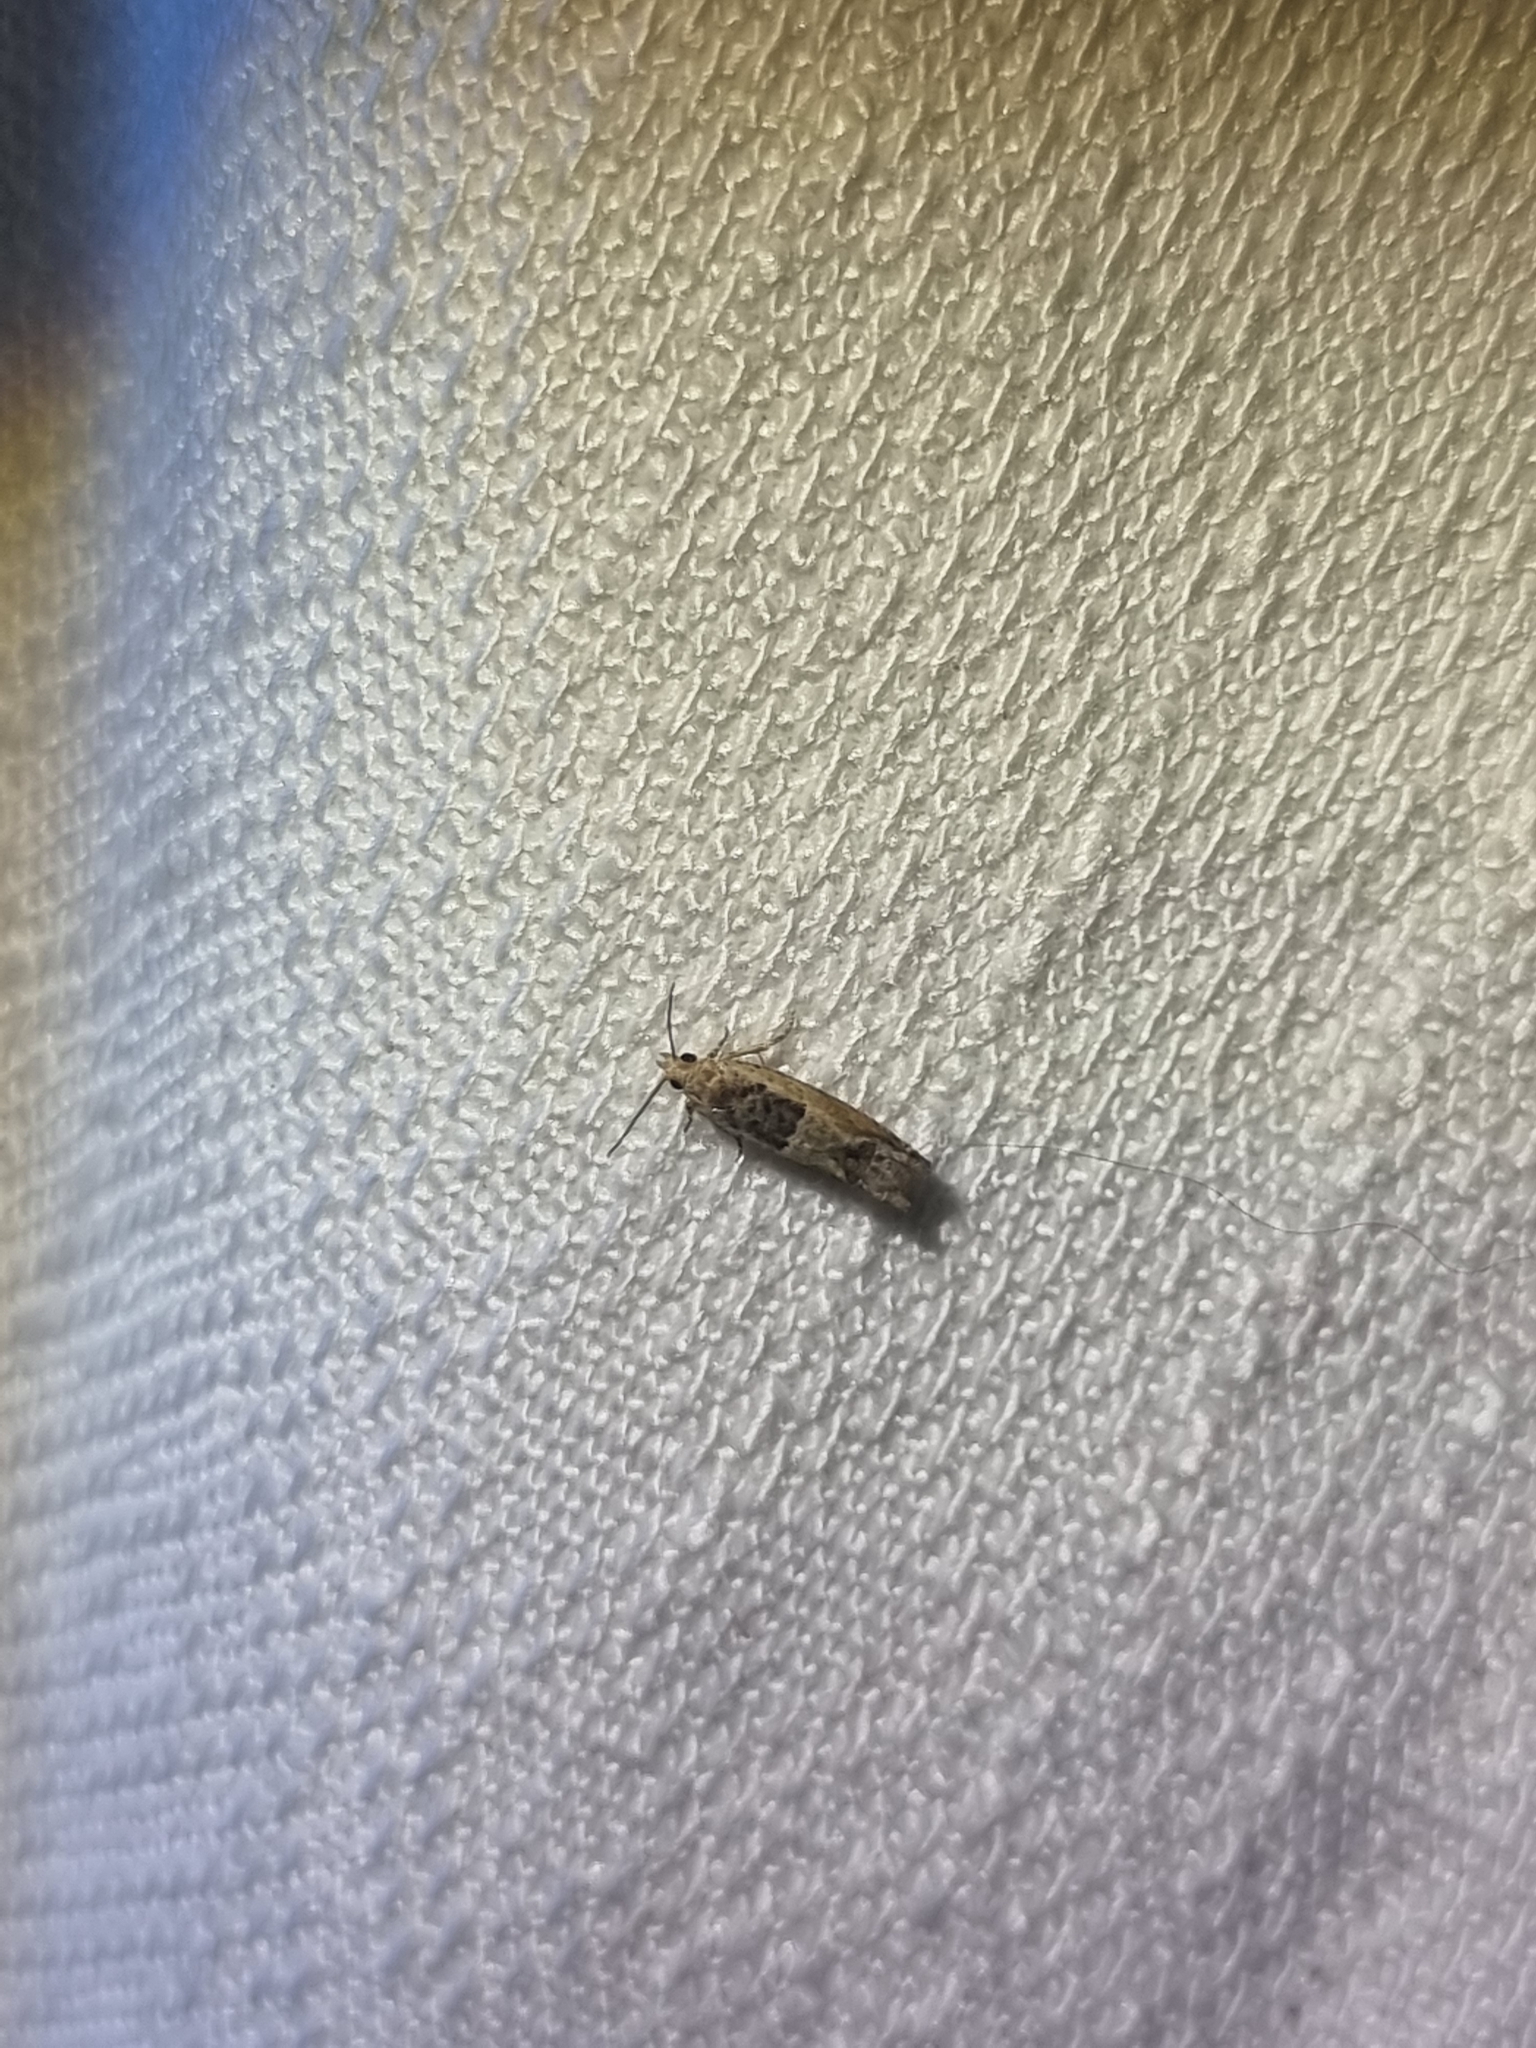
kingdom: Animalia
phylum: Arthropoda
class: Insecta
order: Lepidoptera
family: Tortricidae
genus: Crocidosema
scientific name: Crocidosema plebejana
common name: Southern bell
